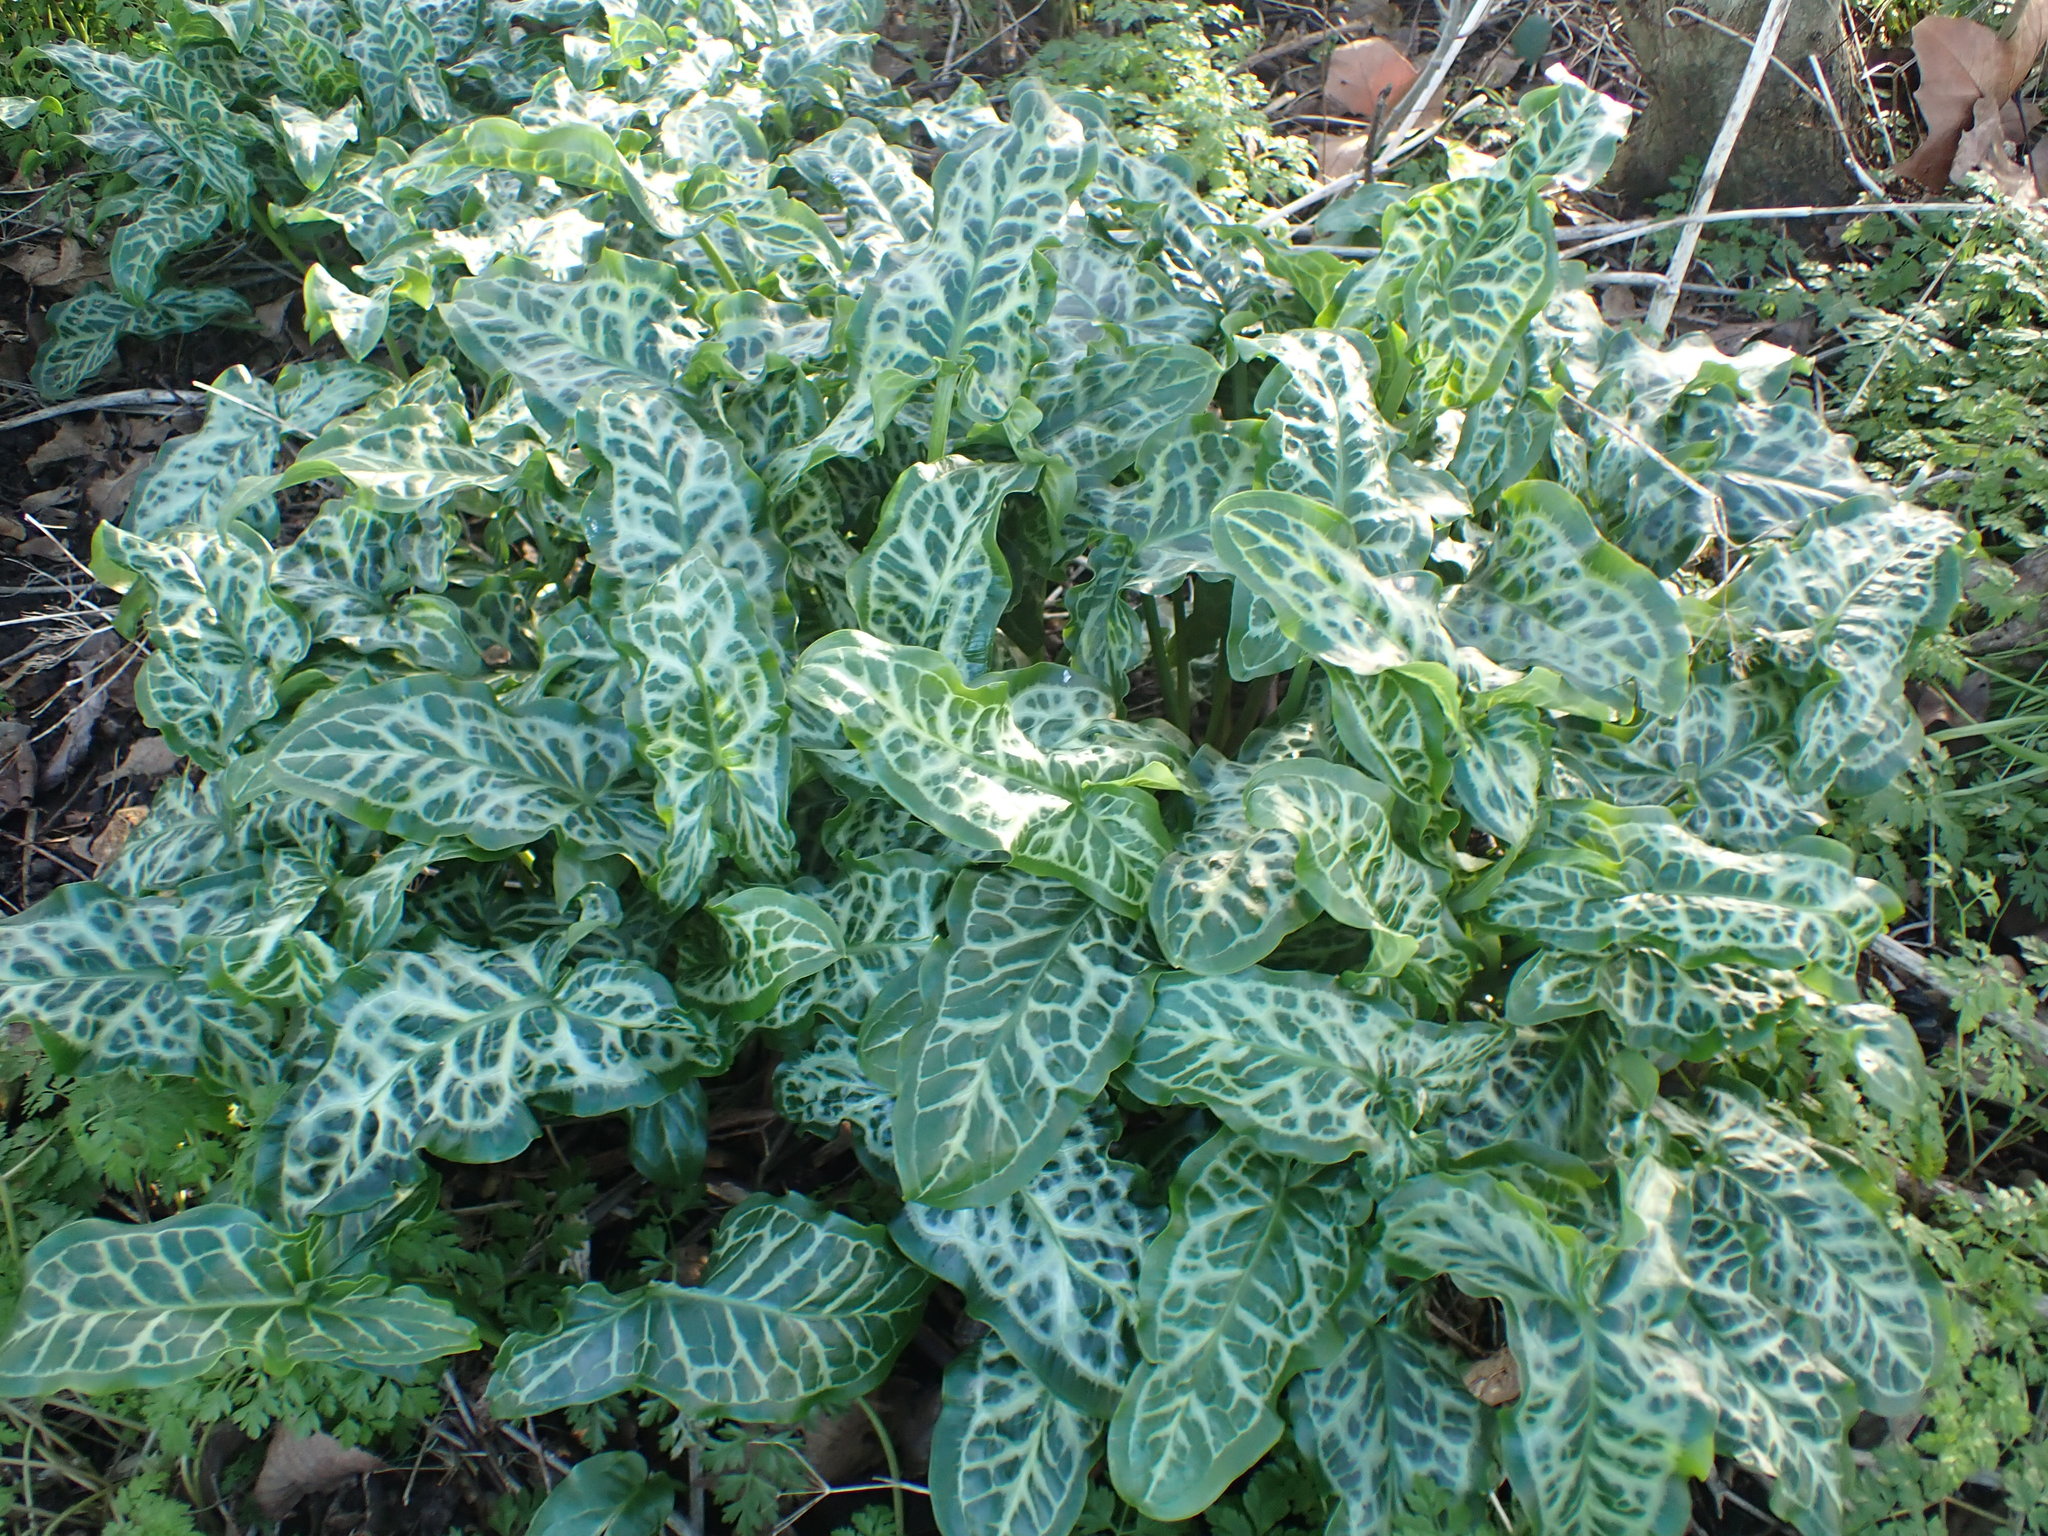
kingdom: Plantae
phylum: Tracheophyta
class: Liliopsida
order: Alismatales
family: Araceae
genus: Arum
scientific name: Arum italicum
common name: Italian lords-and-ladies
